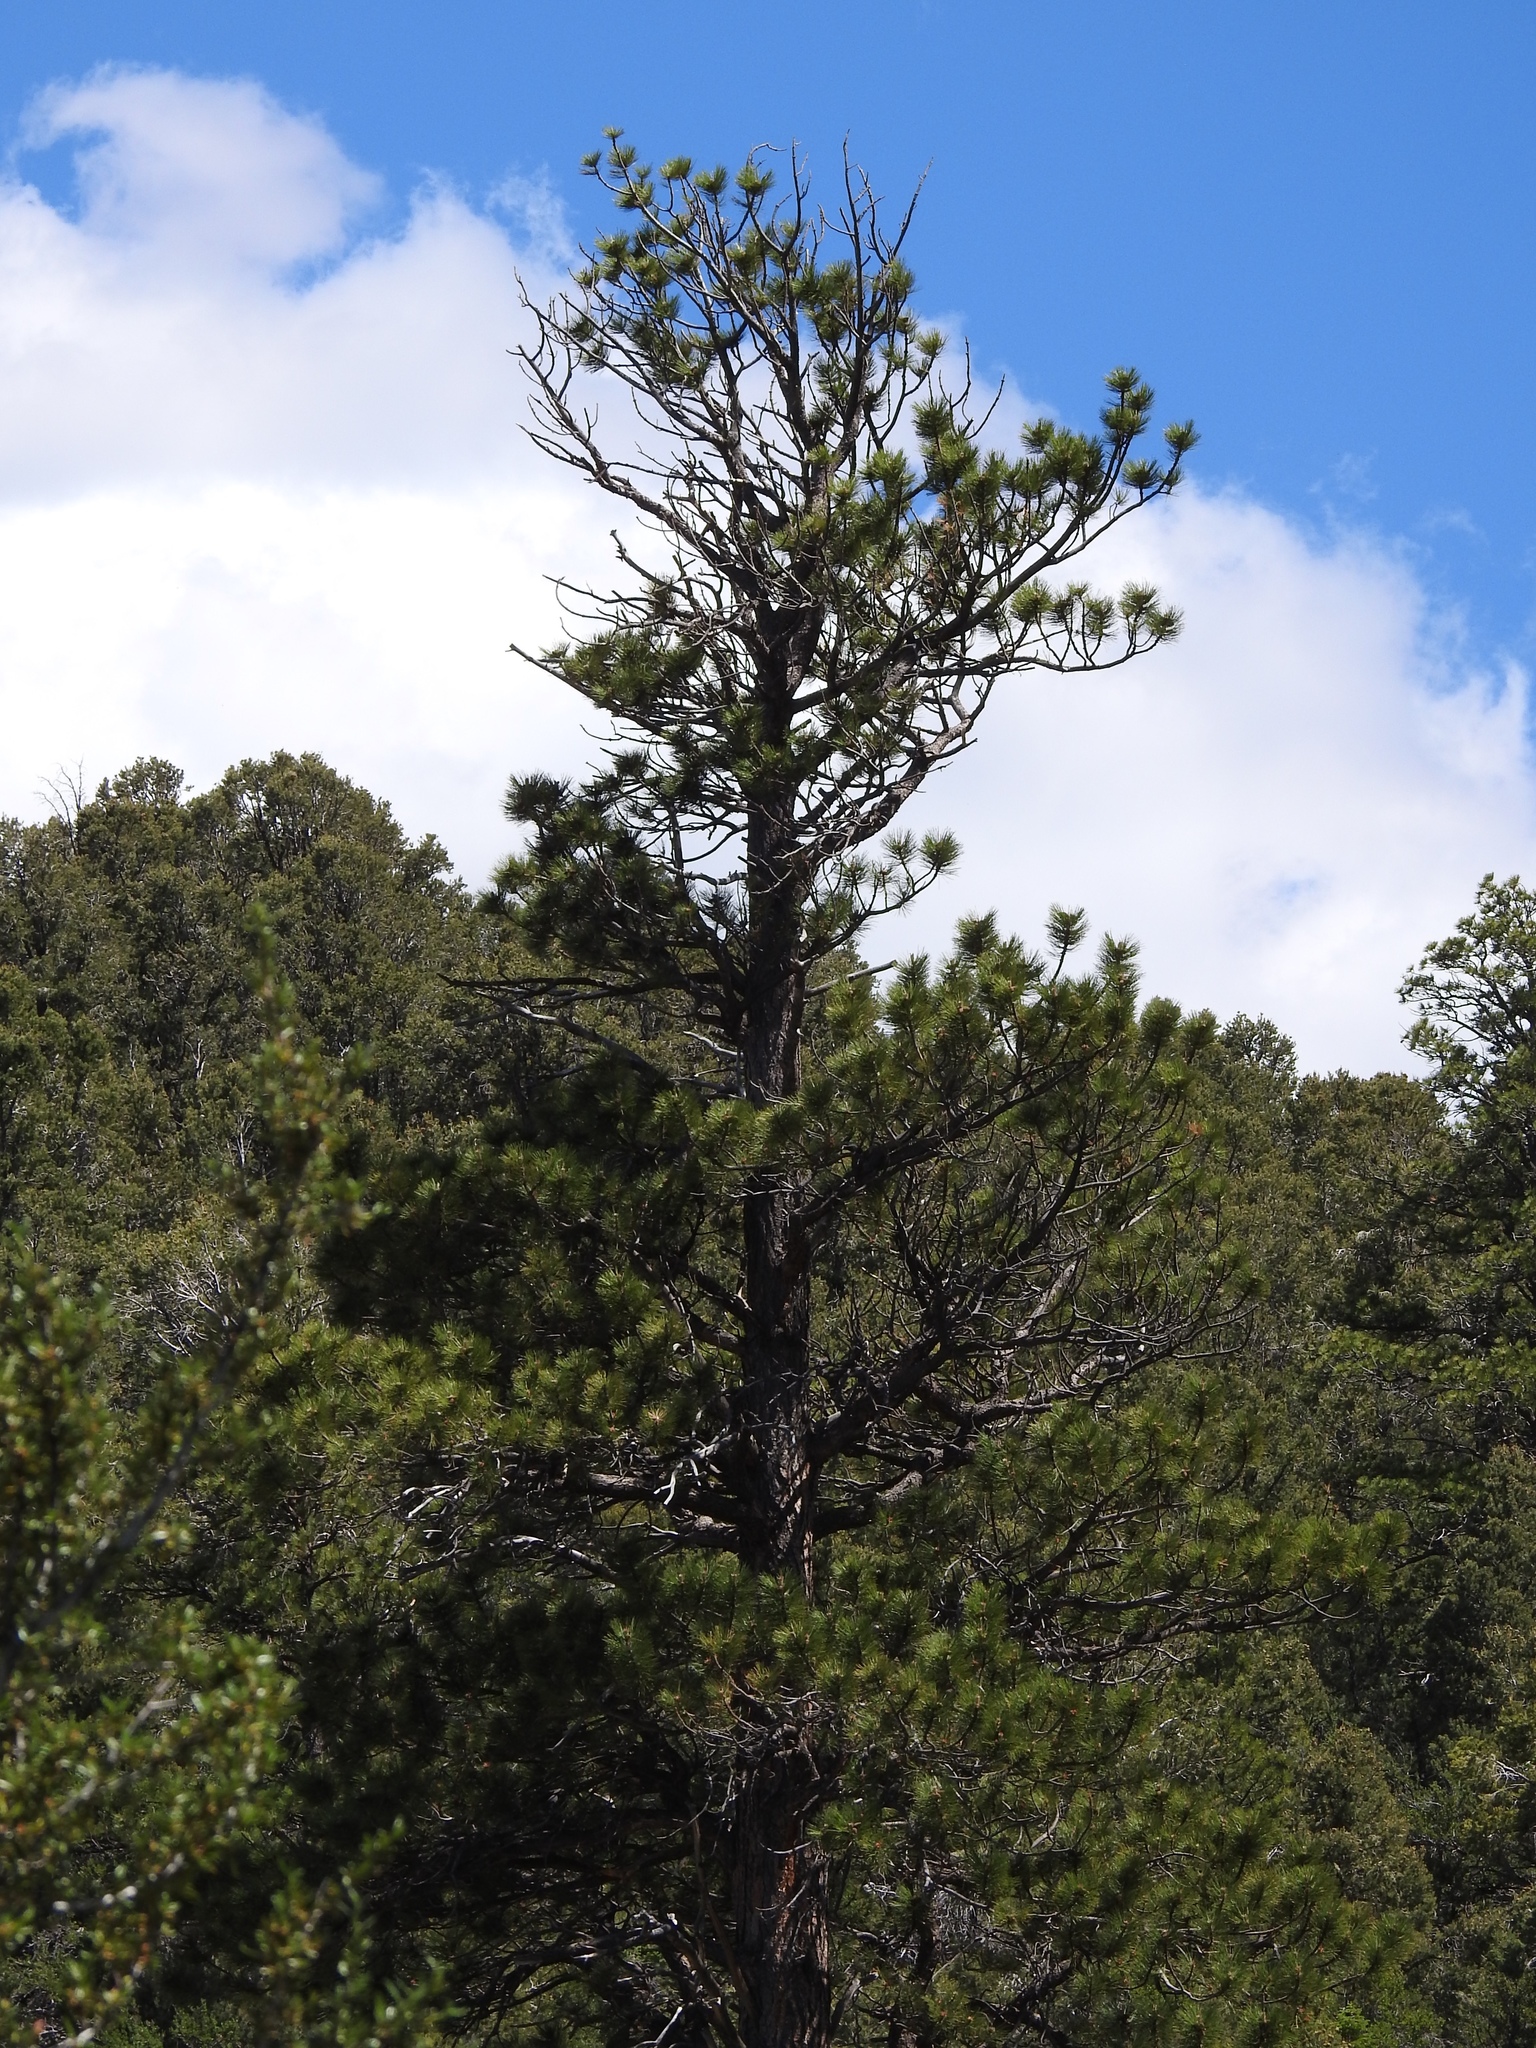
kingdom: Plantae
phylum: Tracheophyta
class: Pinopsida
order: Pinales
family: Pinaceae
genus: Pinus
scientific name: Pinus ponderosa
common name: Western yellow-pine
